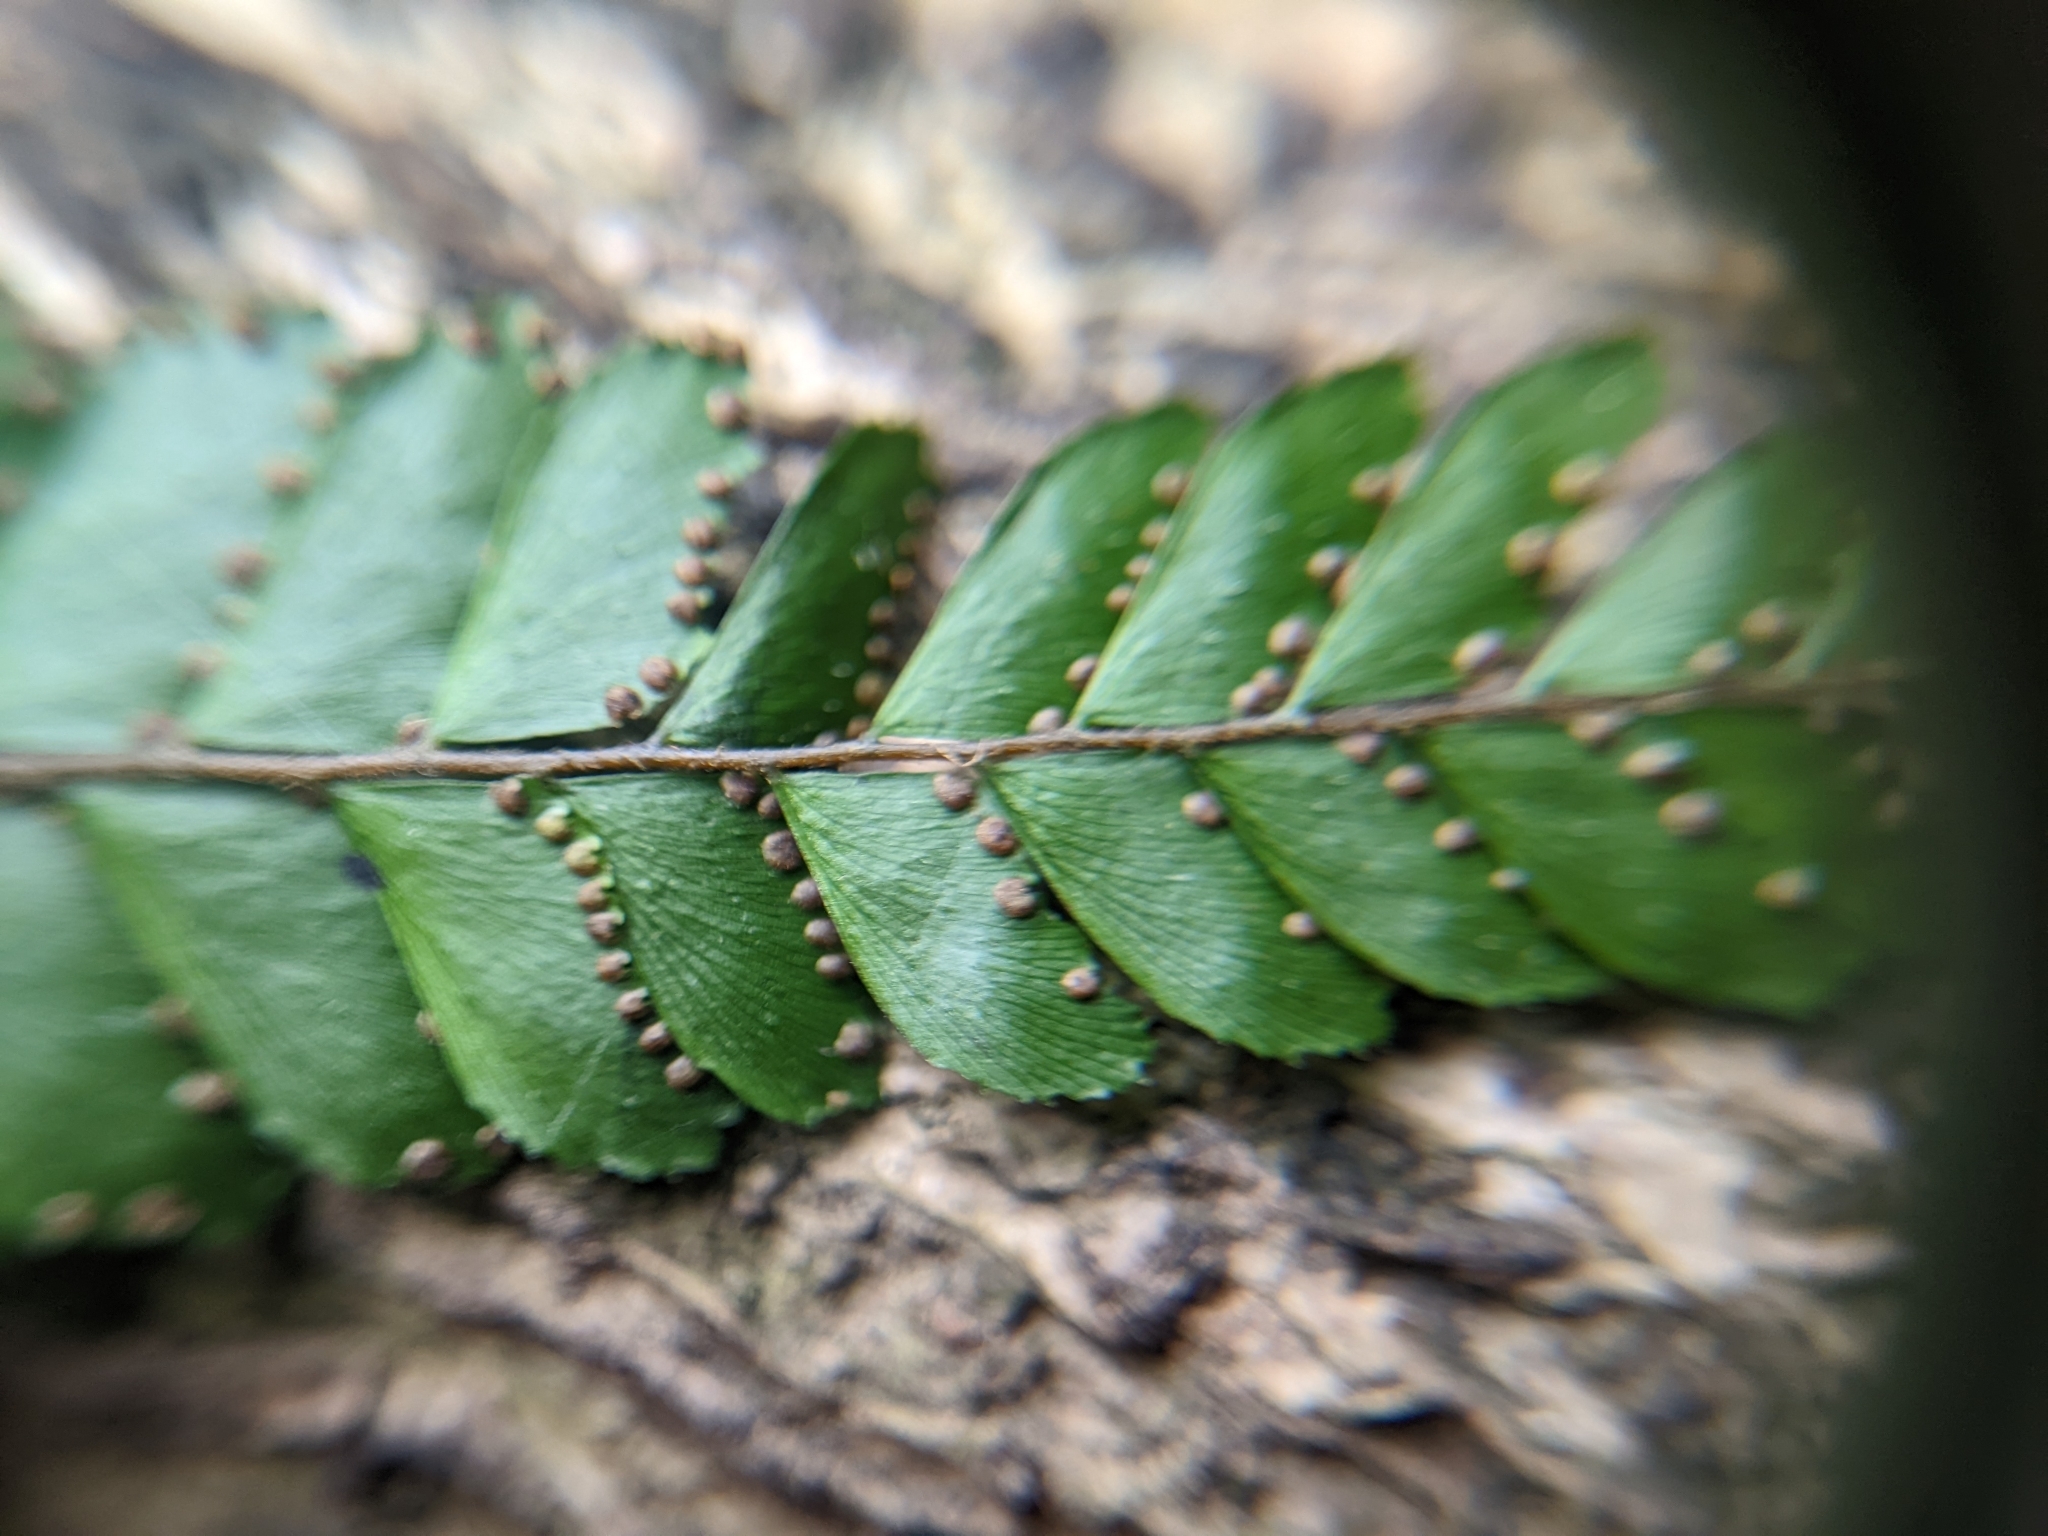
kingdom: Plantae
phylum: Tracheophyta
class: Polypodiopsida
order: Polypodiales
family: Pteridaceae
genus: Adiantum
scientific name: Adiantum hispidulum
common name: Rough maidenhair
